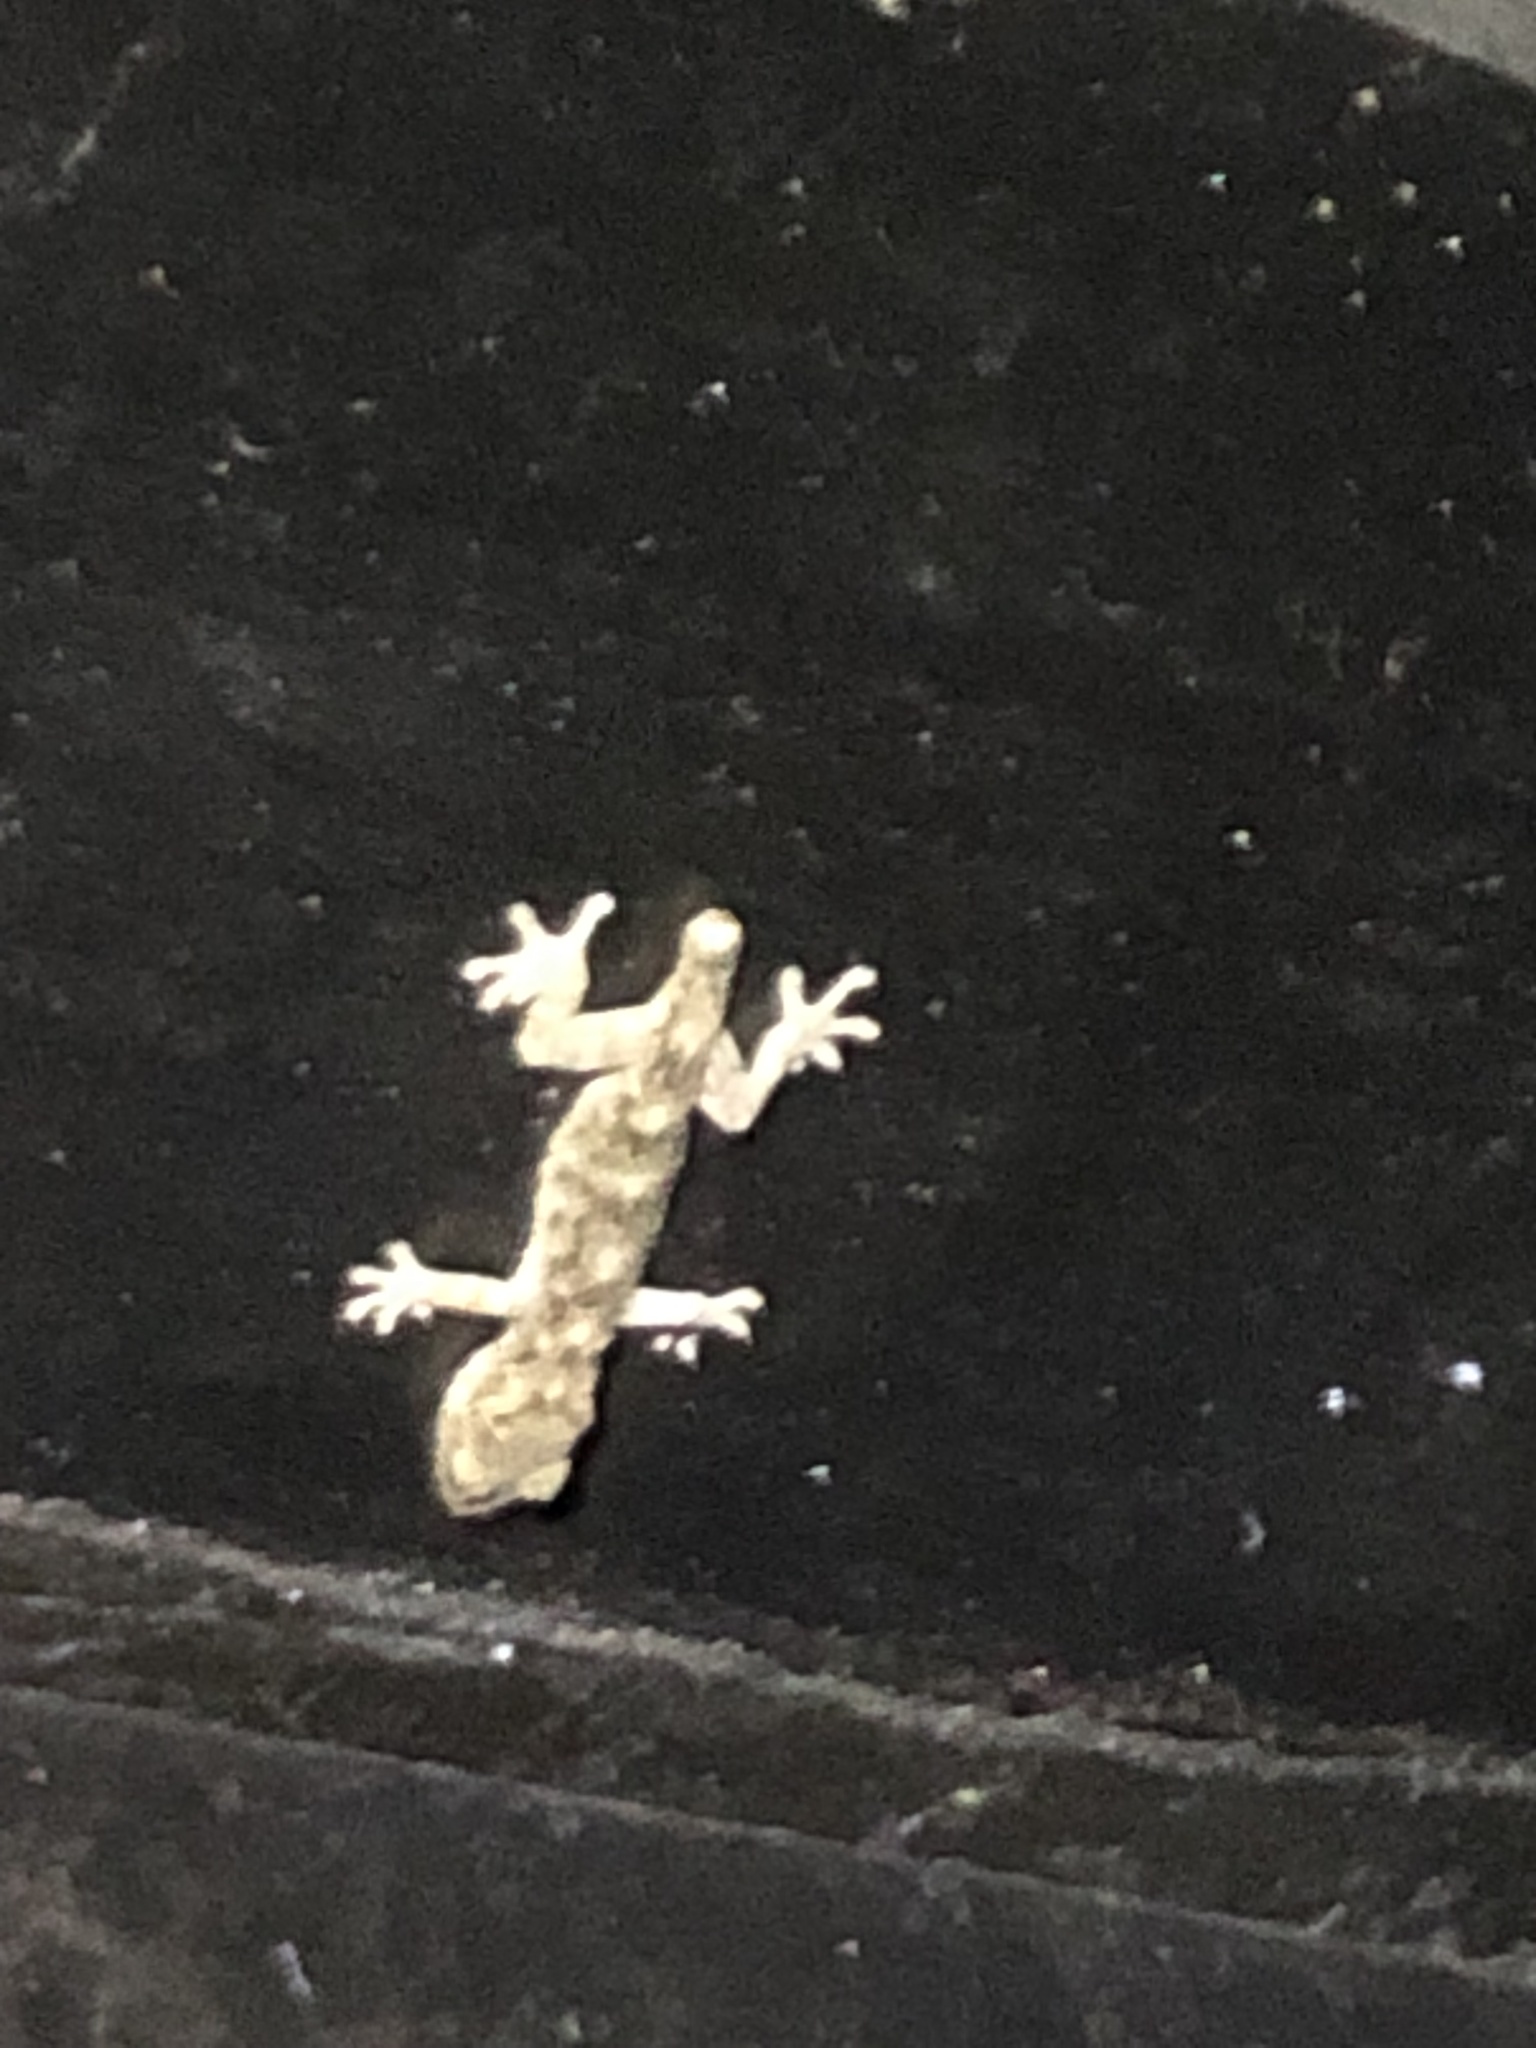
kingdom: Animalia
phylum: Chordata
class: Squamata
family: Gekkonidae
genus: Gekko
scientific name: Gekko chinensis
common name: Gray's chinese gecko
